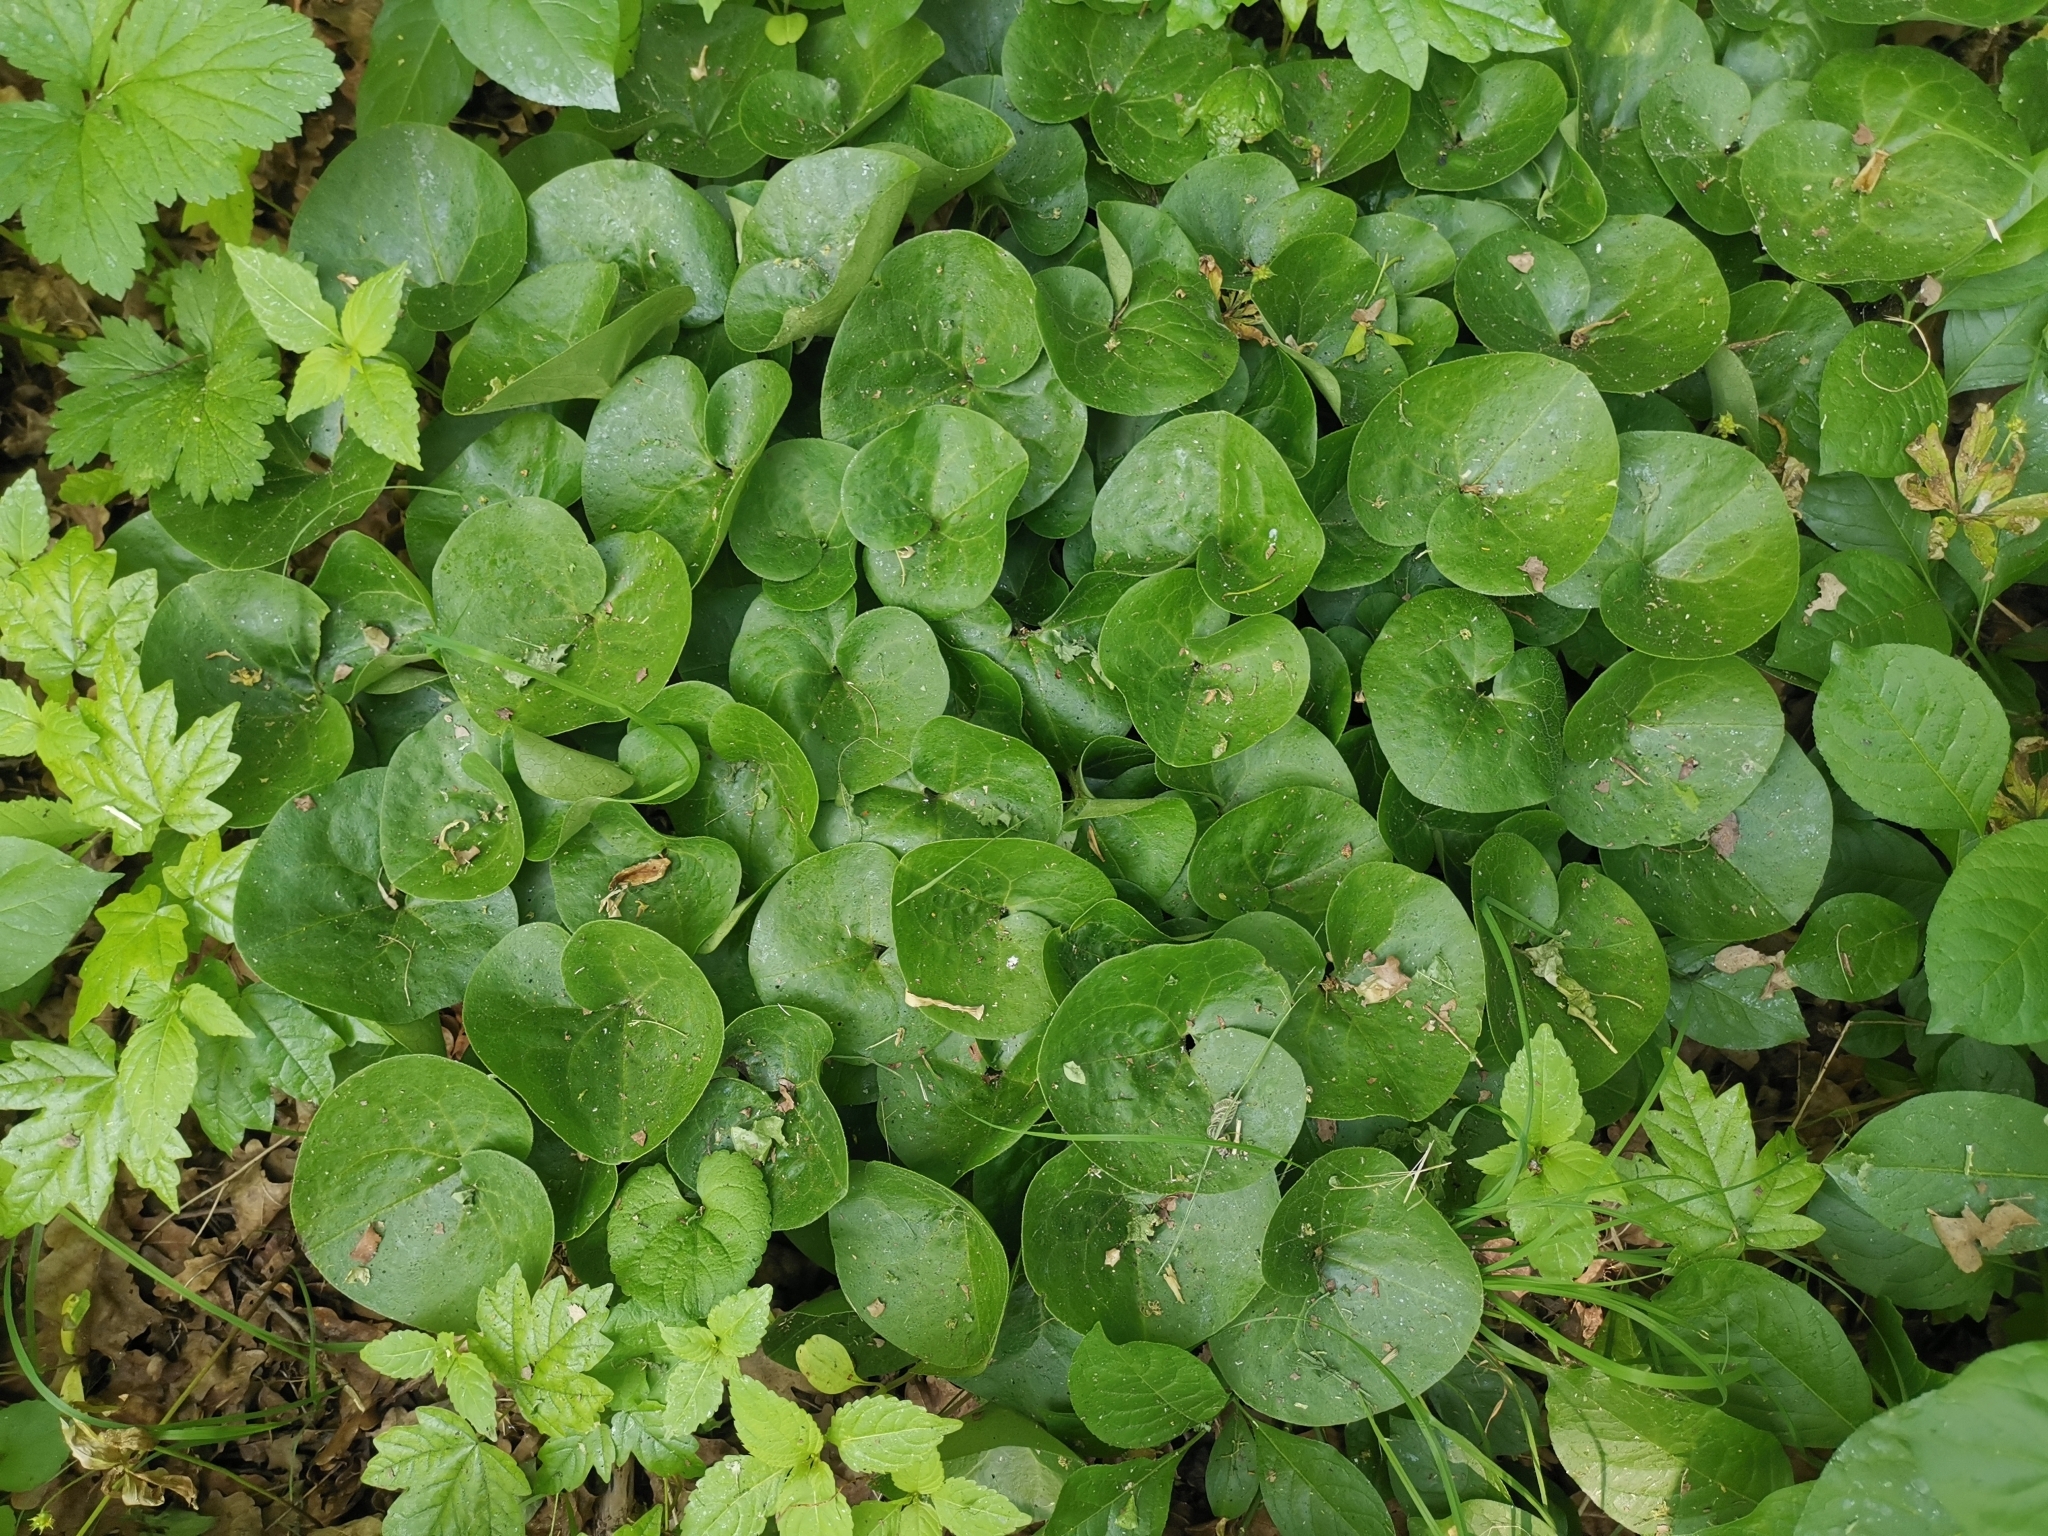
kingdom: Plantae
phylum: Tracheophyta
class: Magnoliopsida
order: Piperales
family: Aristolochiaceae
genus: Asarum
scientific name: Asarum europaeum
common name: Asarabacca
